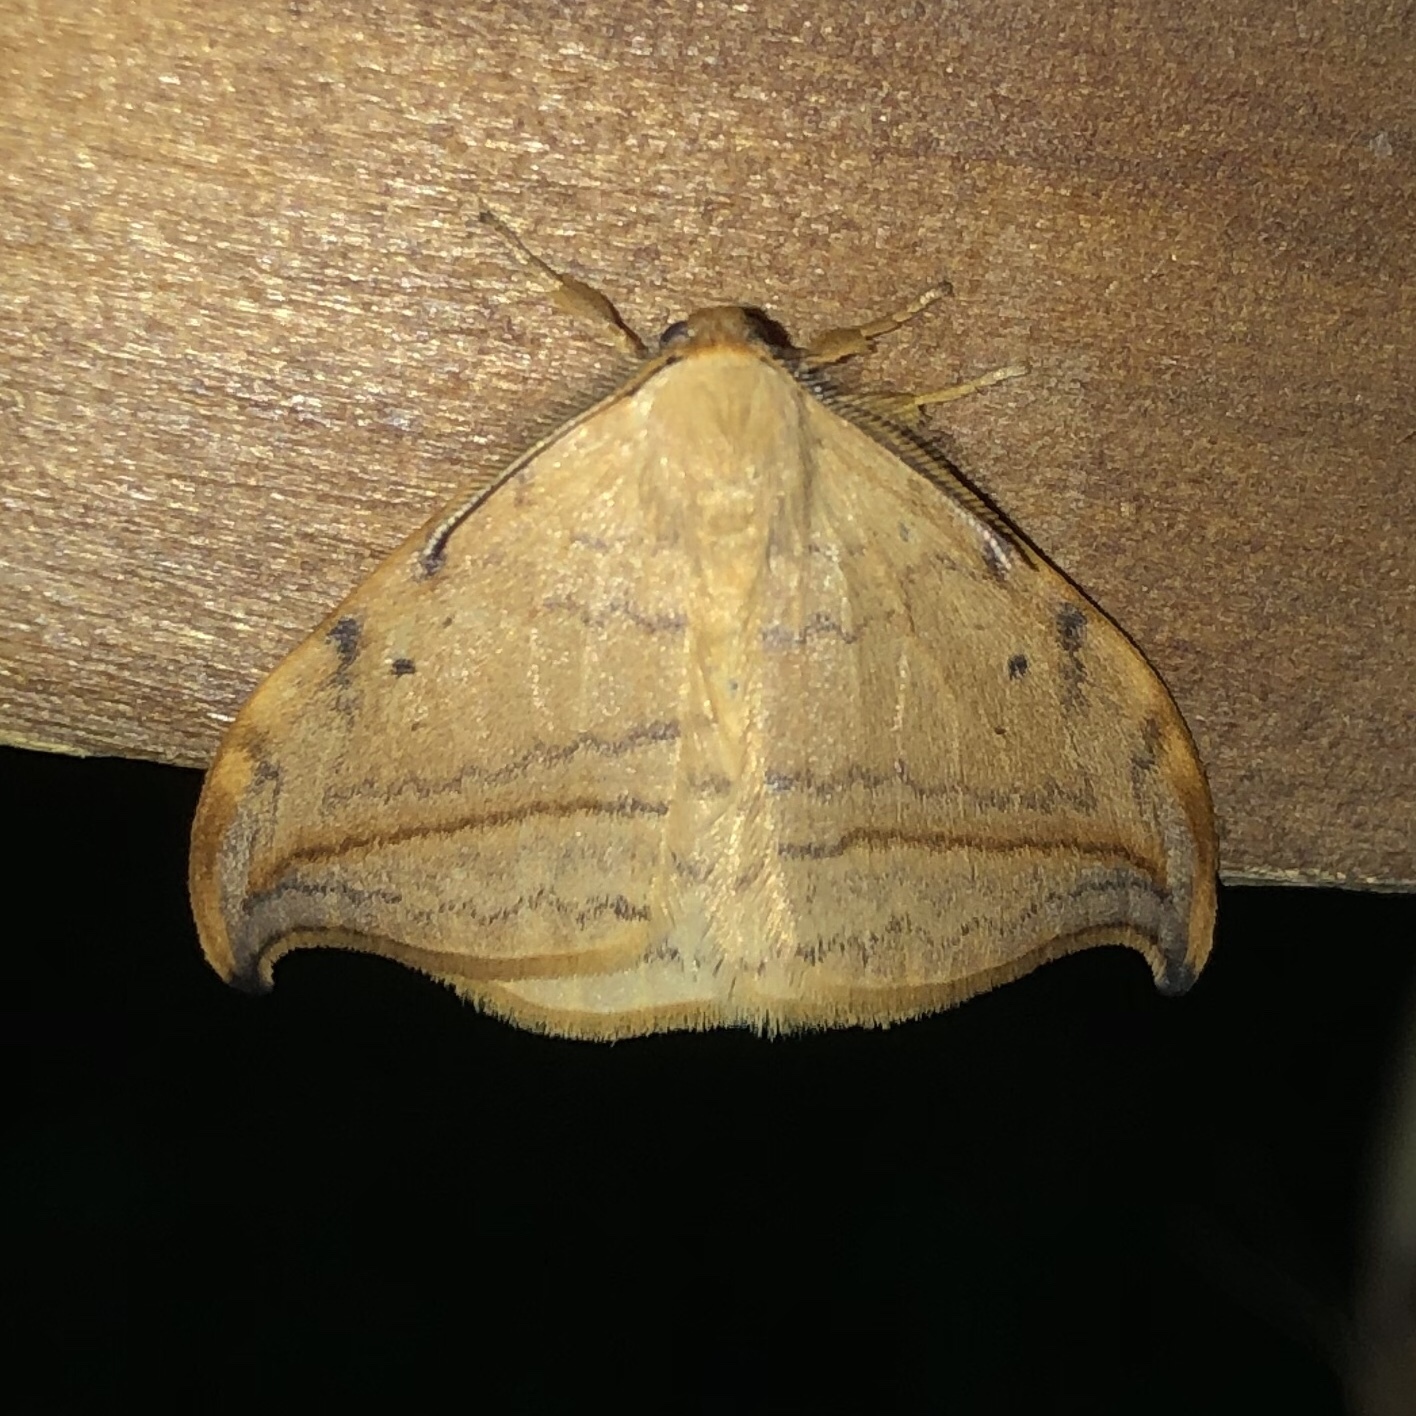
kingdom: Animalia
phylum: Arthropoda
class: Insecta
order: Lepidoptera
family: Drepanidae
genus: Drepana
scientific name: Drepana arcuata
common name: Arched hooktip moth
